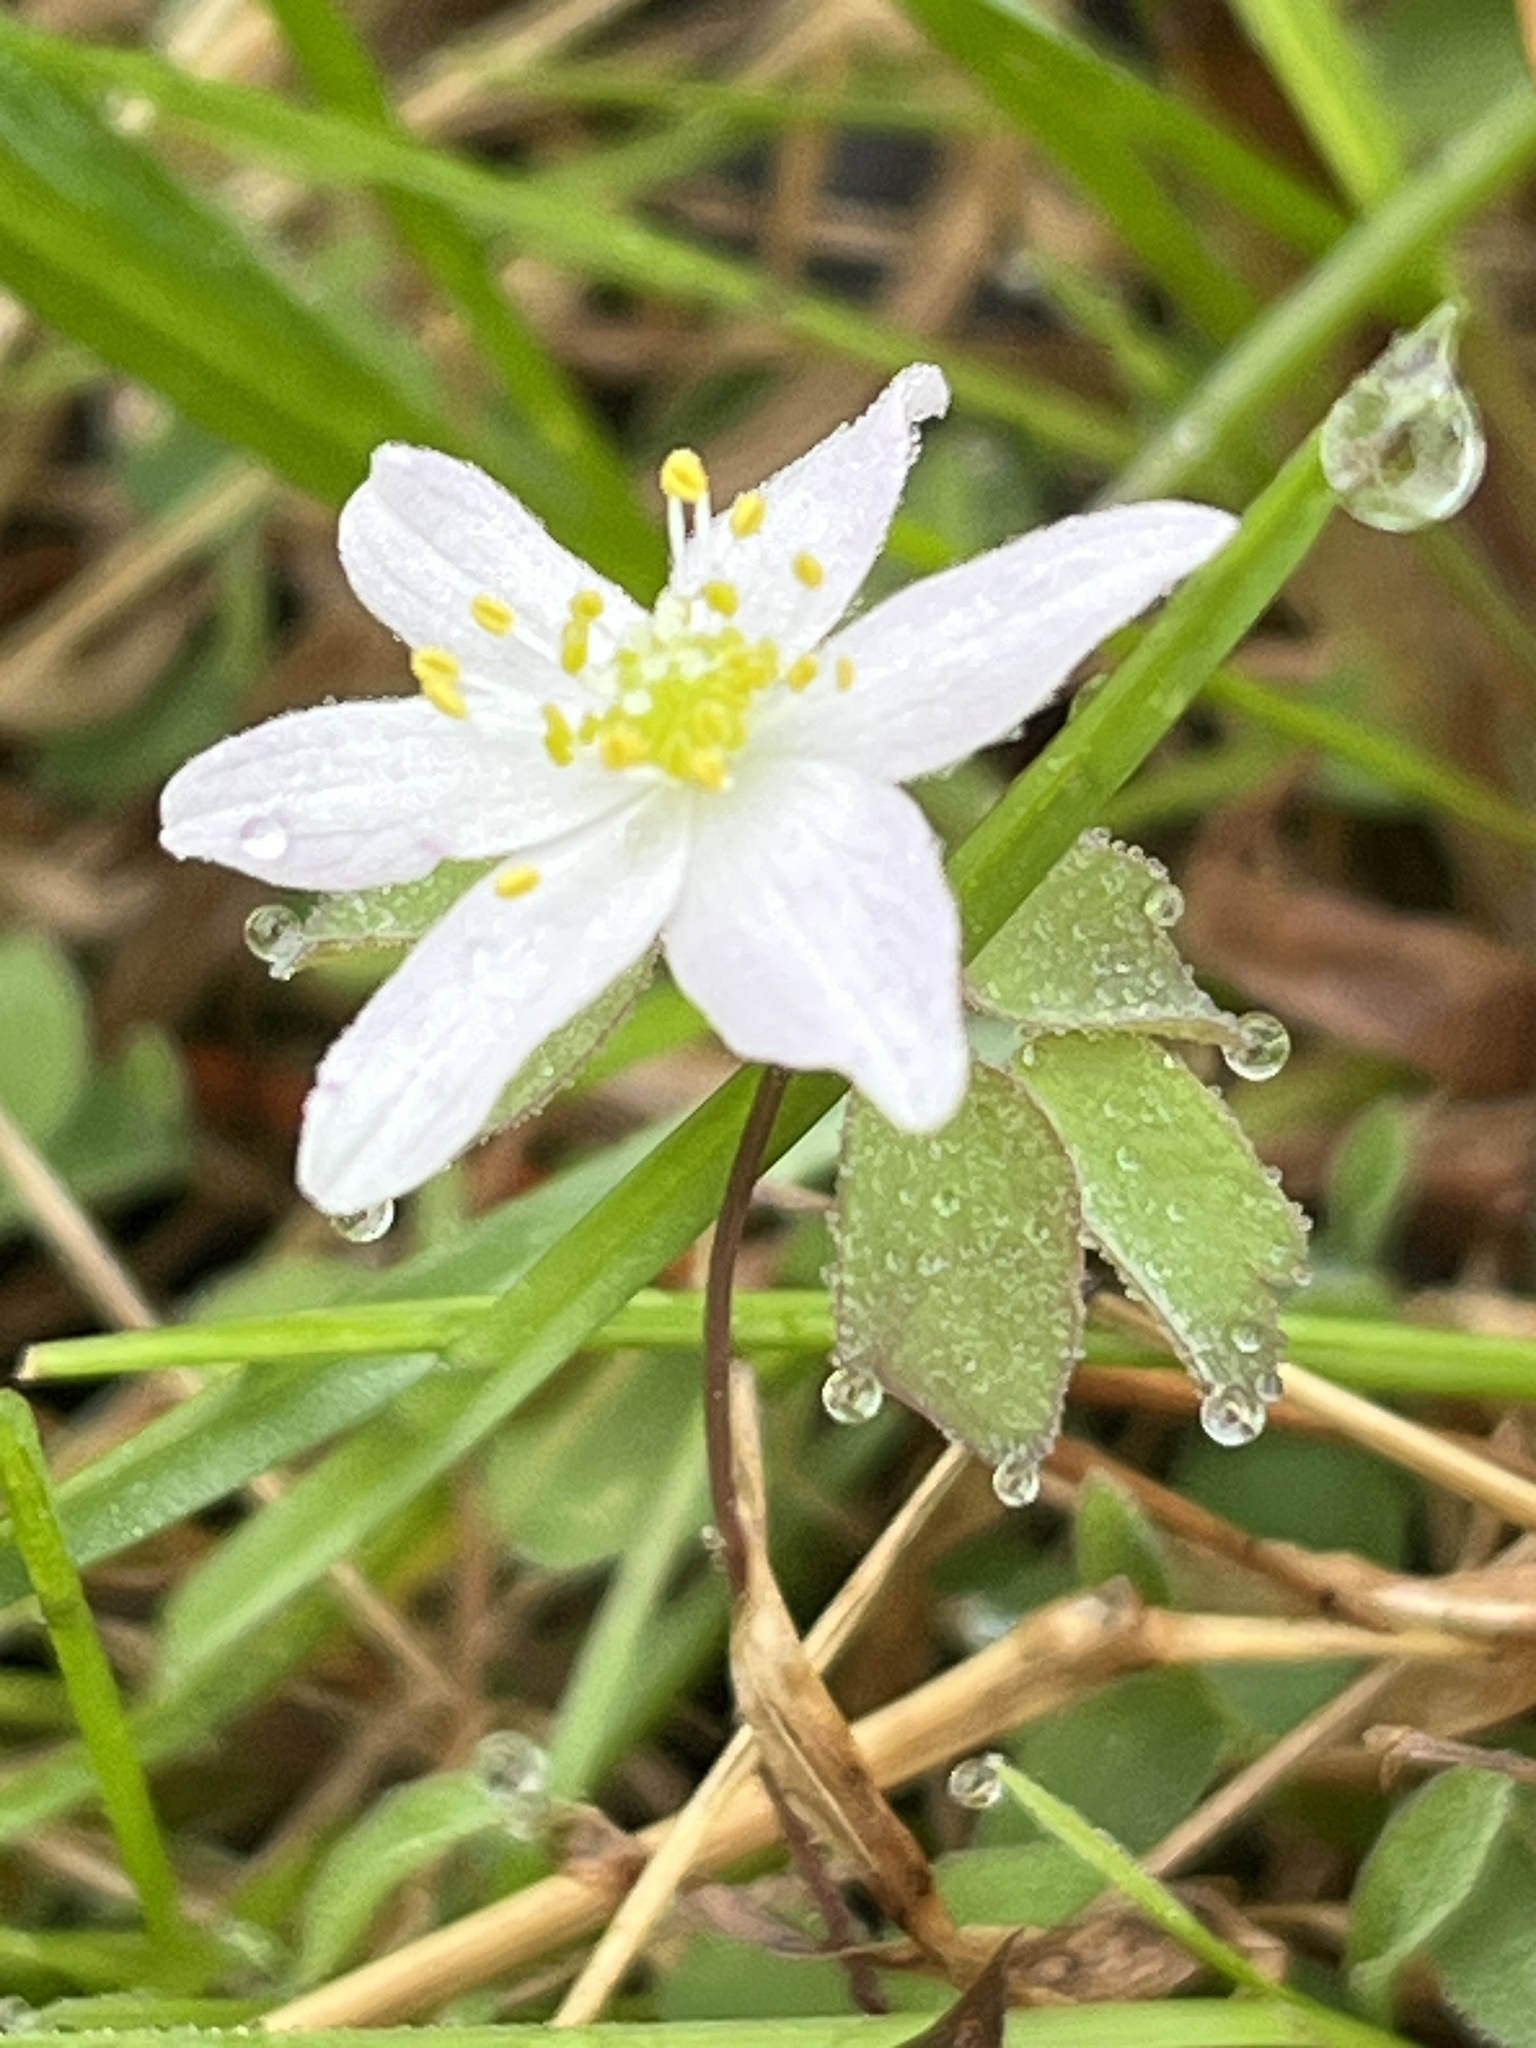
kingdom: Plantae
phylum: Tracheophyta
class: Magnoliopsida
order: Ranunculales
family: Ranunculaceae
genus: Thalictrum
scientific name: Thalictrum thalictroides
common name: Rue-anemone
